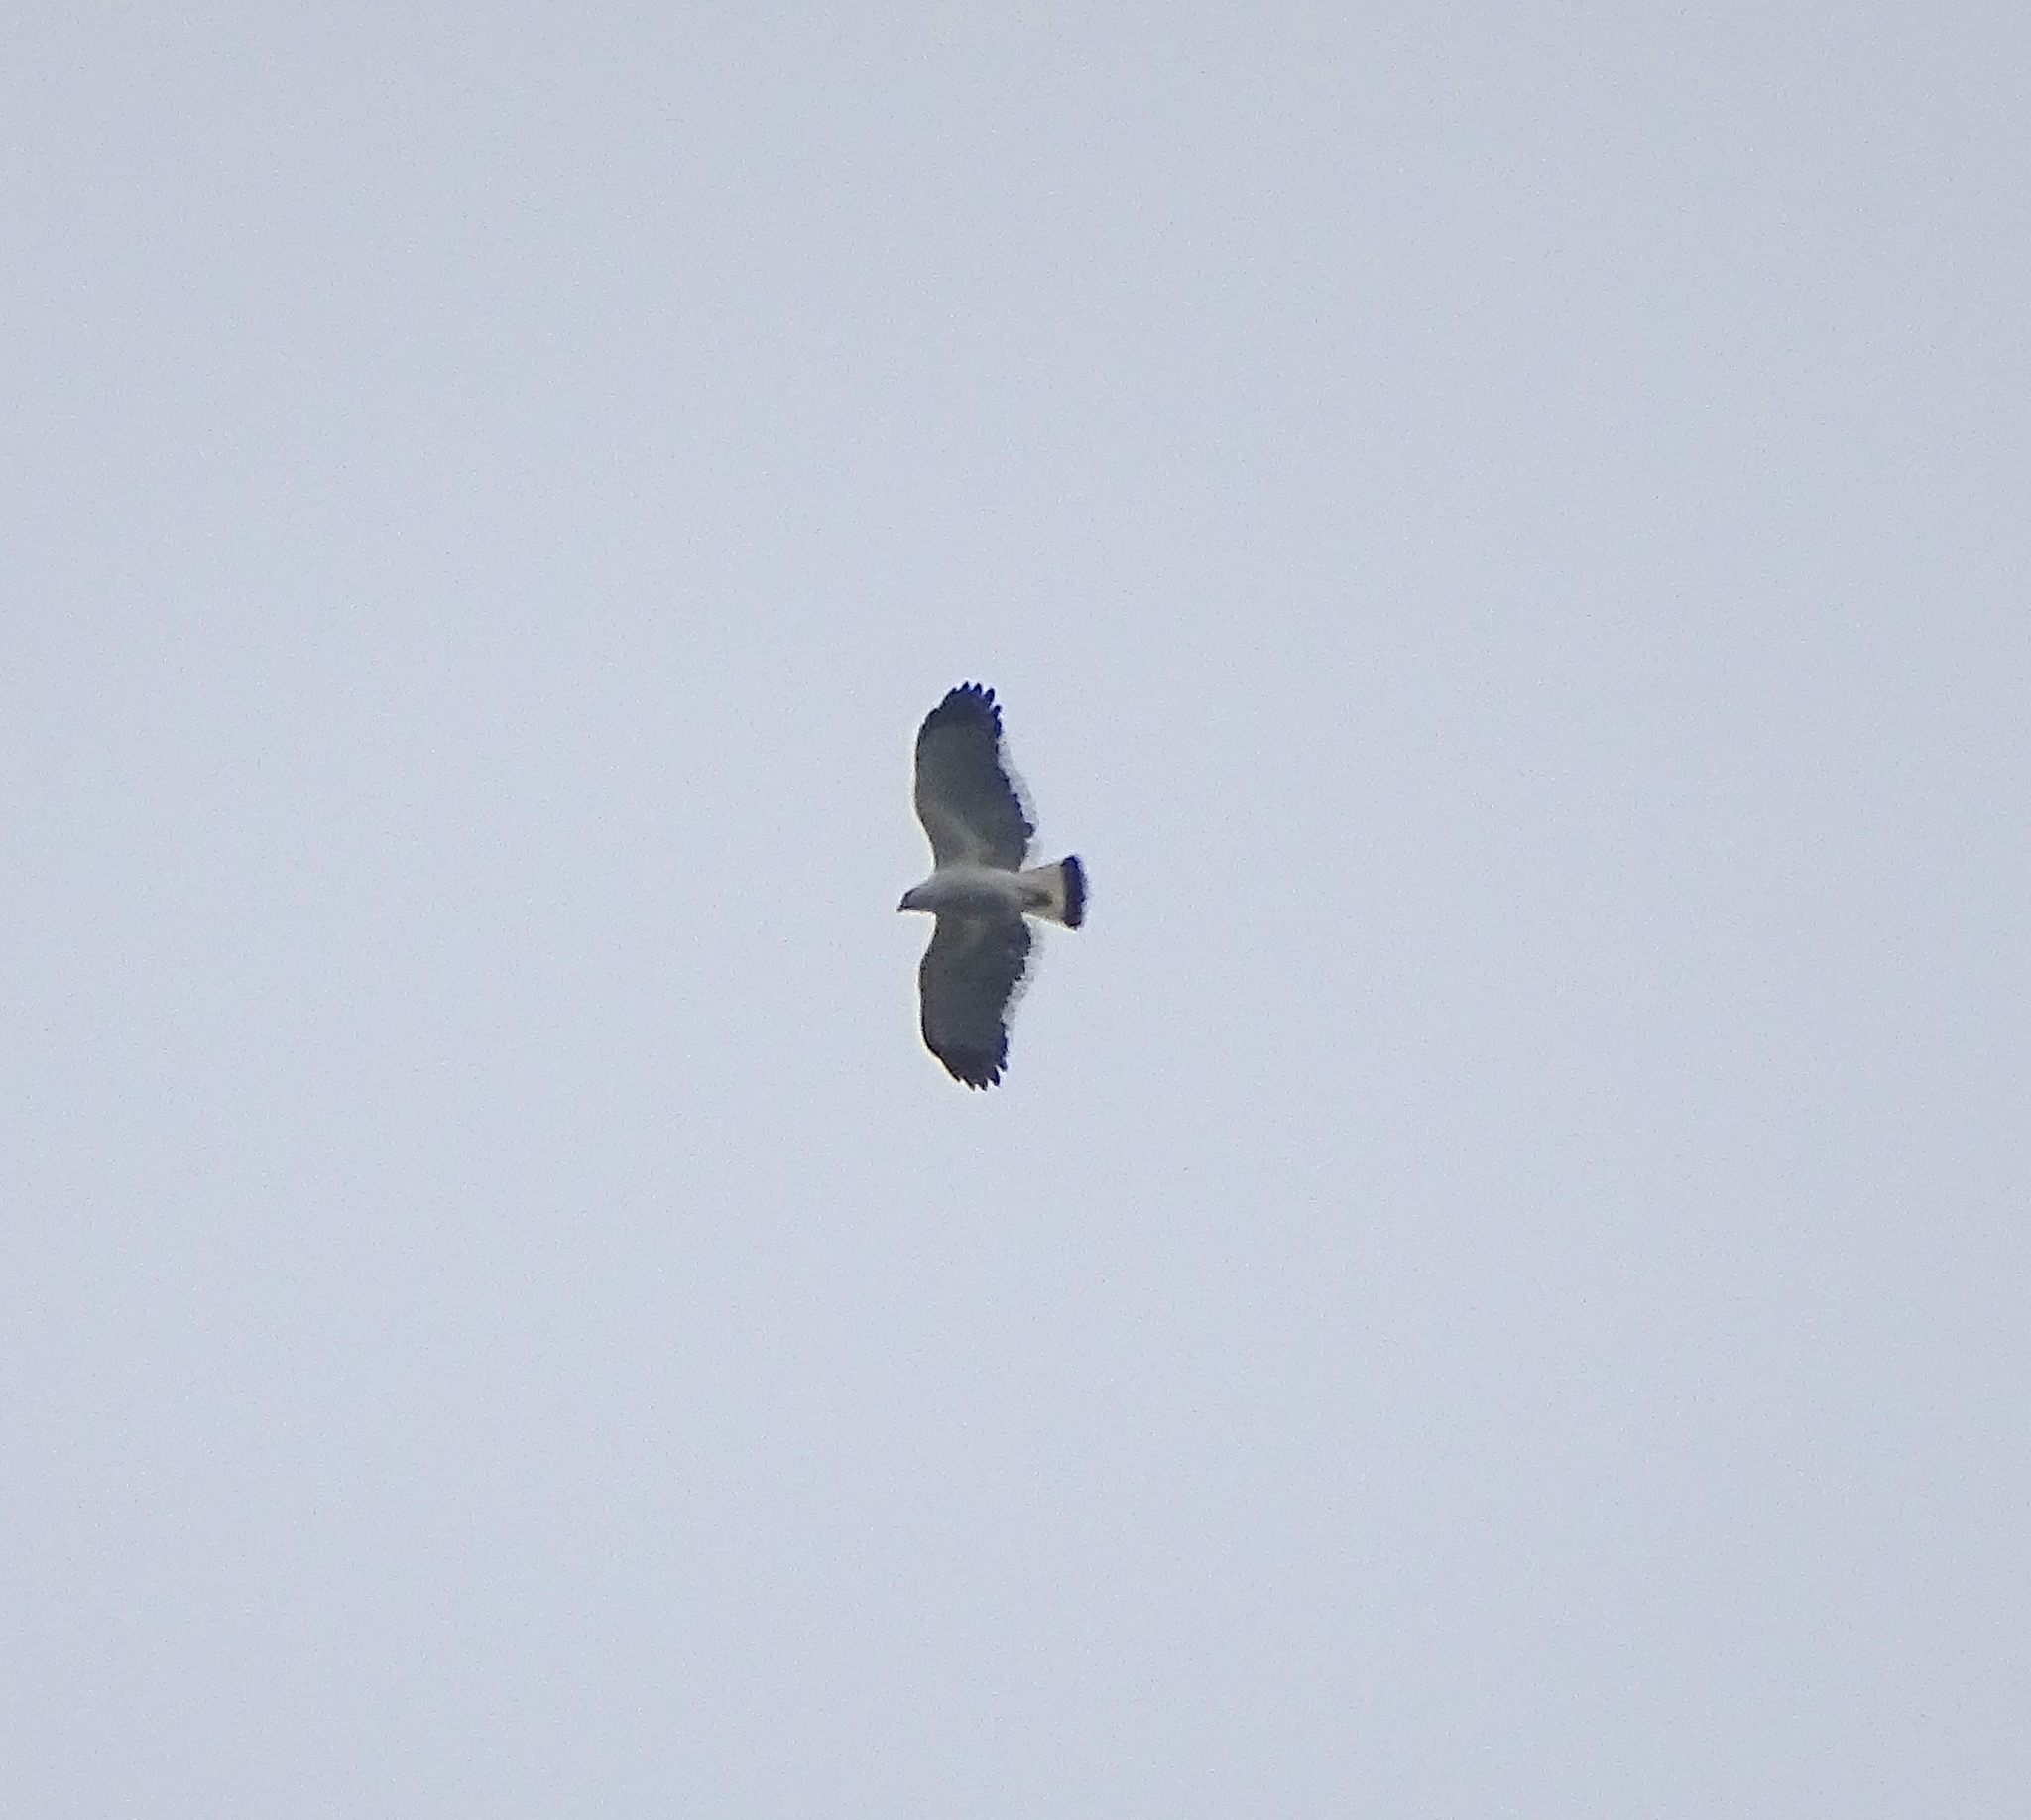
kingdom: Animalia
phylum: Chordata
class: Aves
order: Accipitriformes
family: Accipitridae
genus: Leucopternis
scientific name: Leucopternis albicollis
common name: White hawk
